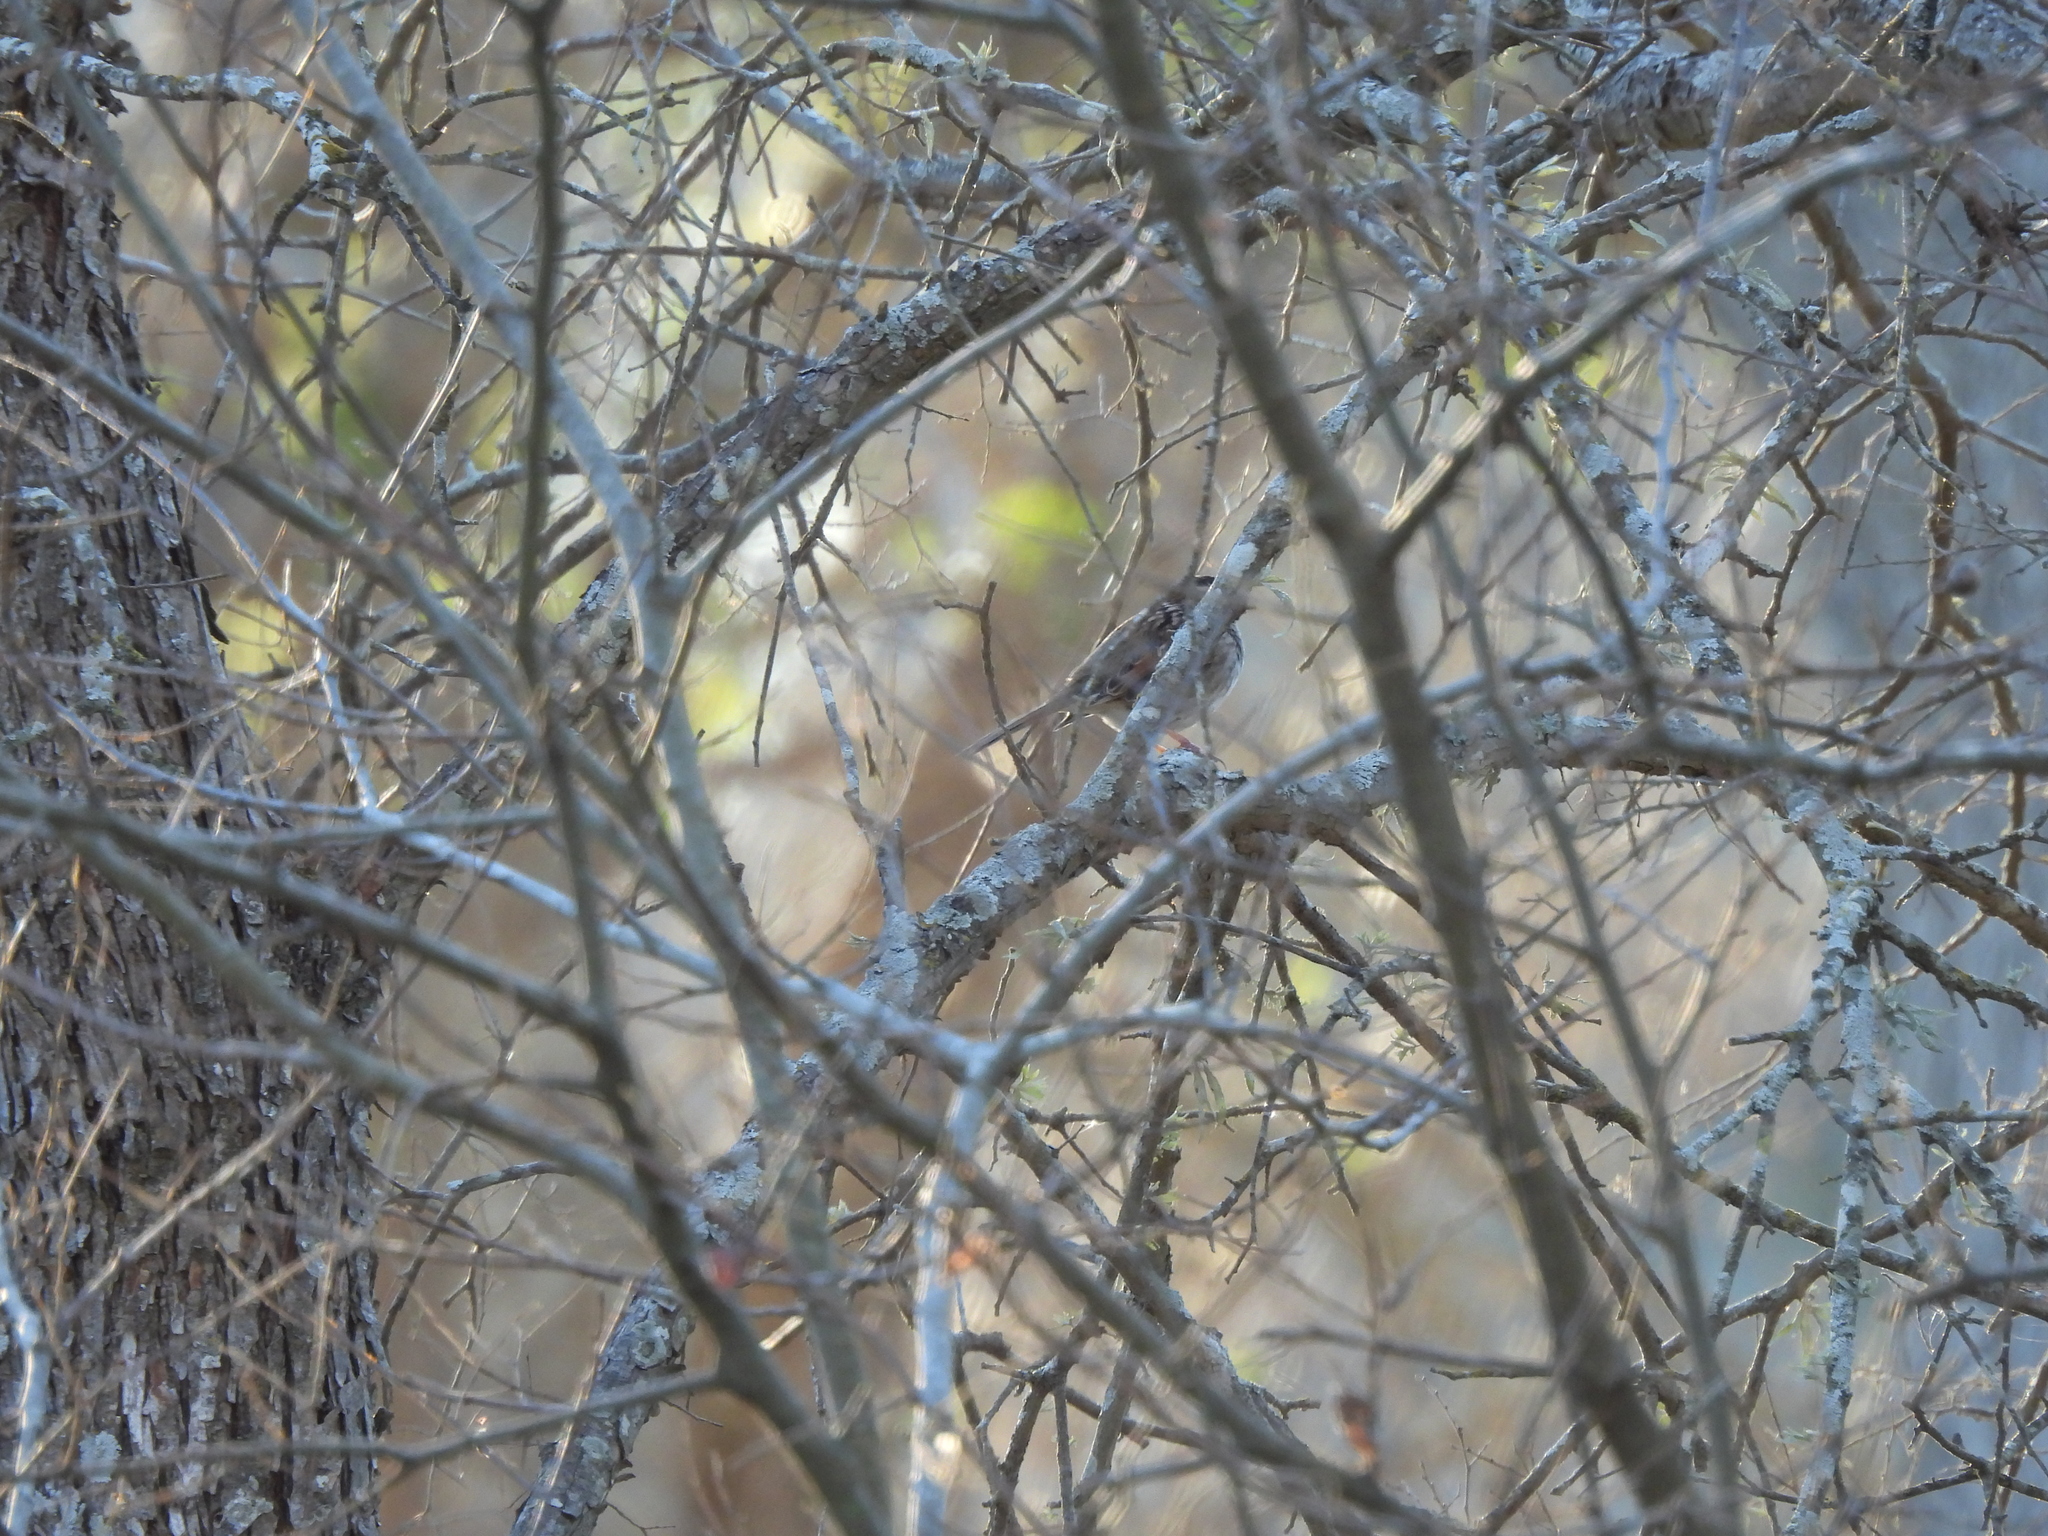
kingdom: Animalia
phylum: Chordata
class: Aves
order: Passeriformes
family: Passerellidae
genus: Zonotrichia
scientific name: Zonotrichia albicollis
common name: White-throated sparrow
